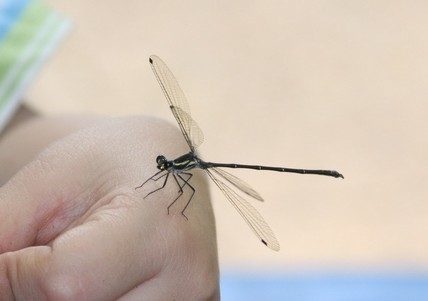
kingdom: Animalia
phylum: Arthropoda
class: Insecta
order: Odonata
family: Argiolestidae
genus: Austroargiolestes
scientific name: Austroargiolestes icteromelas
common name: Common flatwing
